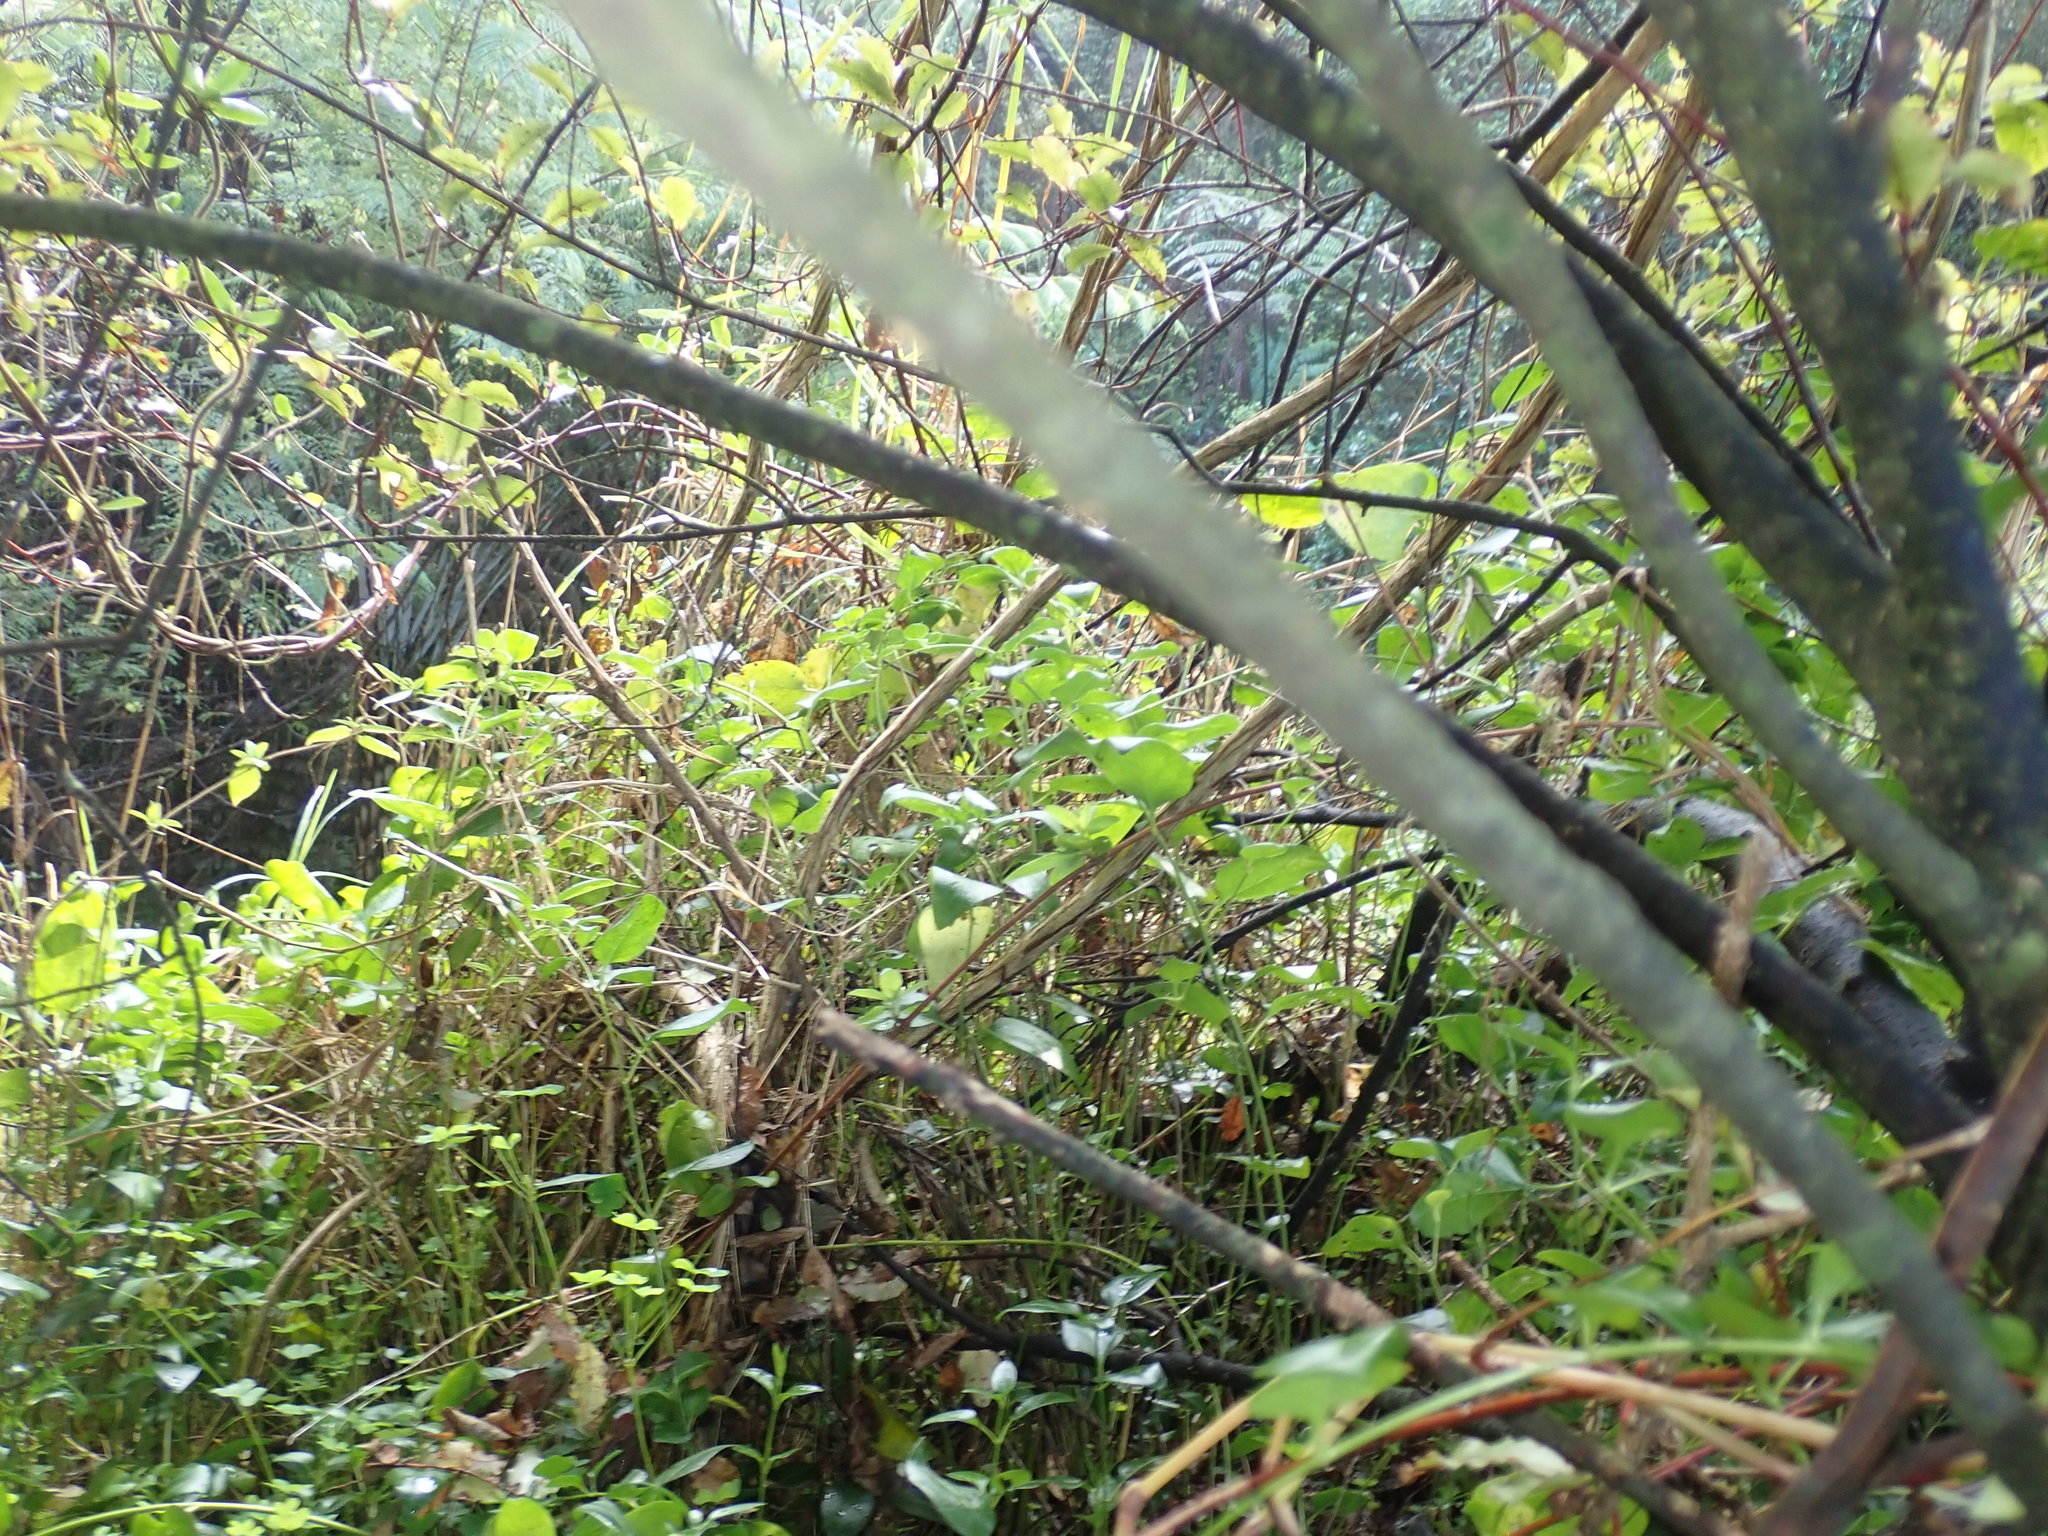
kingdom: Plantae
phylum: Tracheophyta
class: Magnoliopsida
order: Dipsacales
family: Caprifoliaceae
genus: Lonicera
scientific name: Lonicera japonica
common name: Japanese honeysuckle
